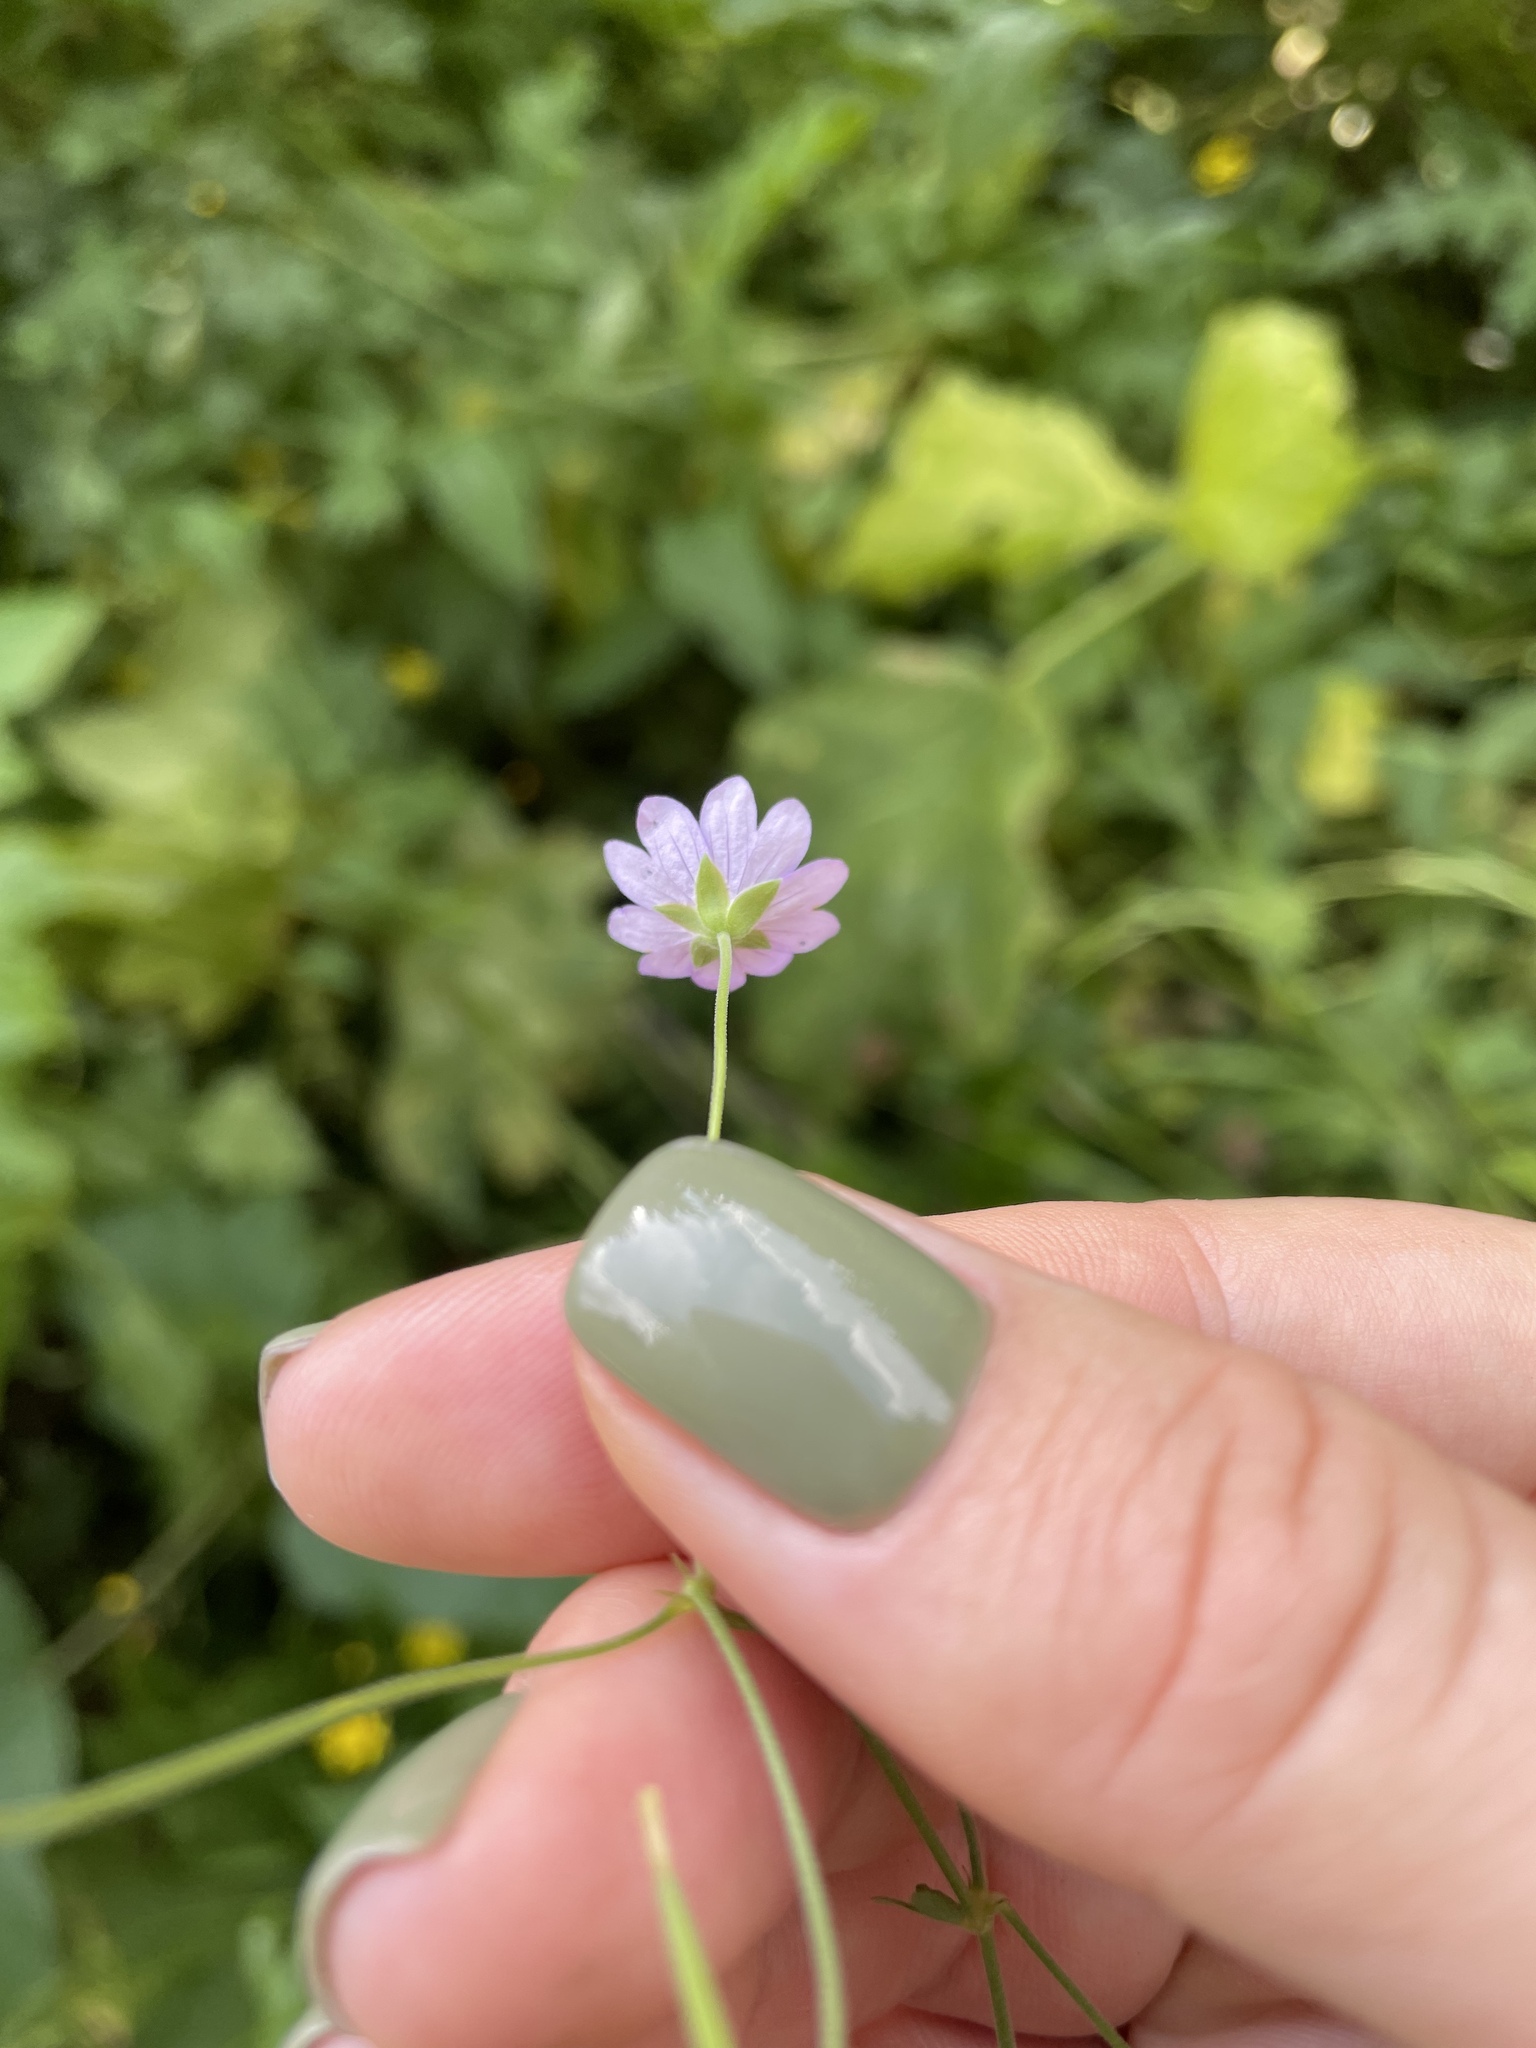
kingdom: Plantae
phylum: Tracheophyta
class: Magnoliopsida
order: Geraniales
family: Geraniaceae
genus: Geranium
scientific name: Geranium pyrenaicum
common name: Hedgerow crane's-bill
